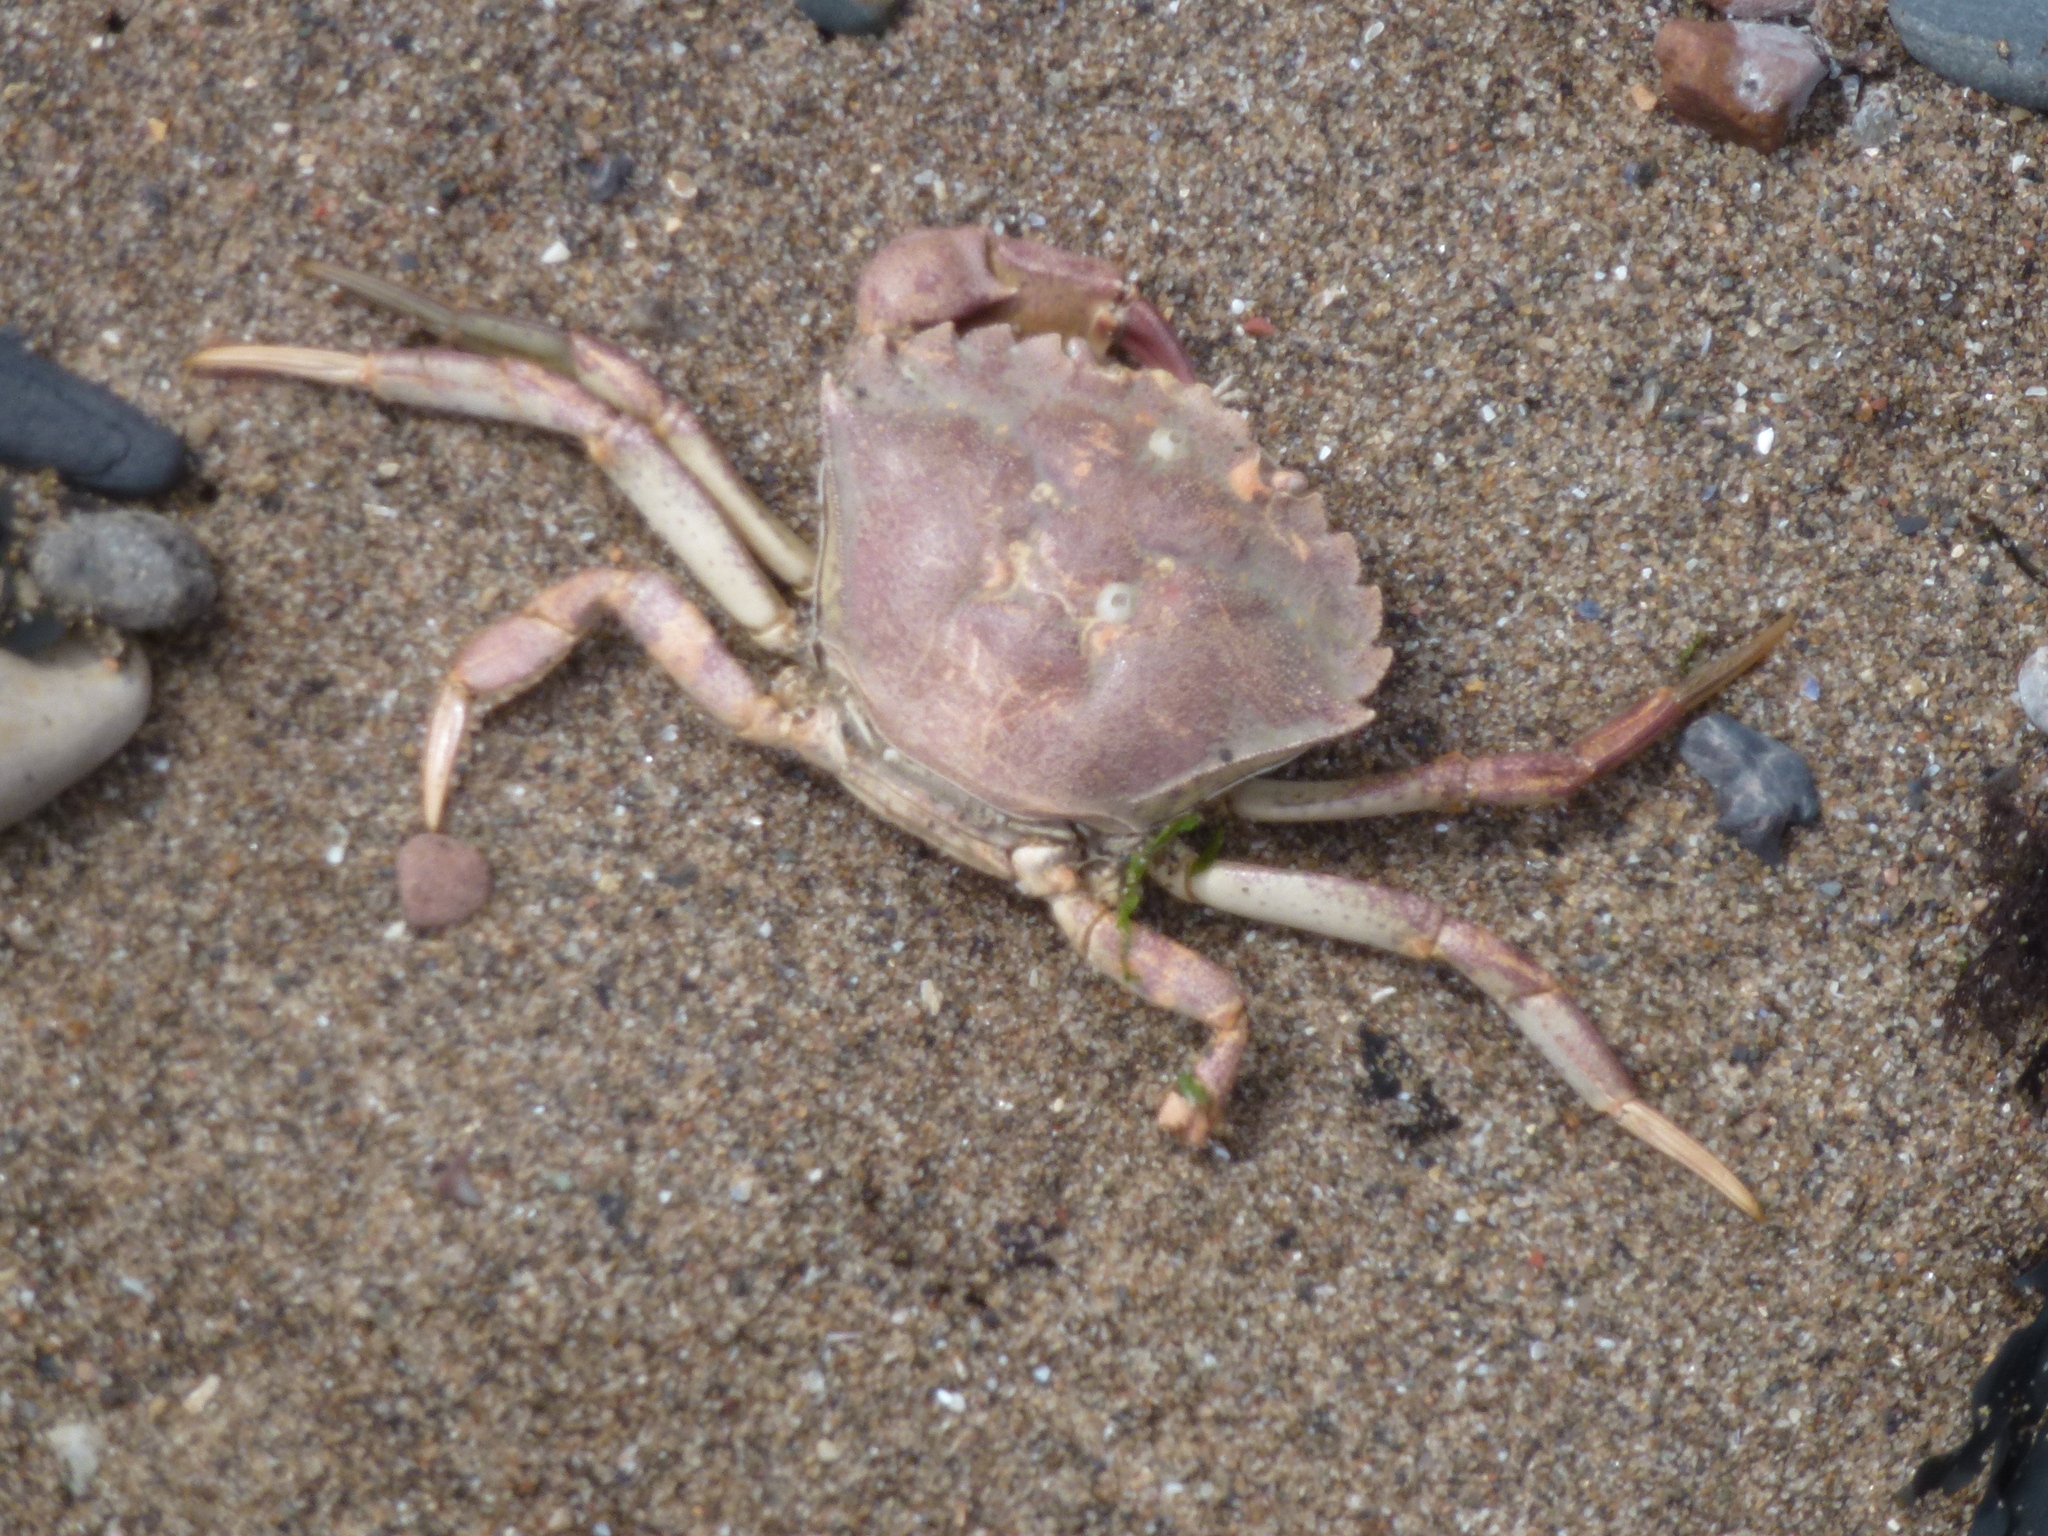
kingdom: Animalia
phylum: Arthropoda
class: Malacostraca
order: Decapoda
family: Carcinidae
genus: Carcinus
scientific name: Carcinus maenas
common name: European green crab
